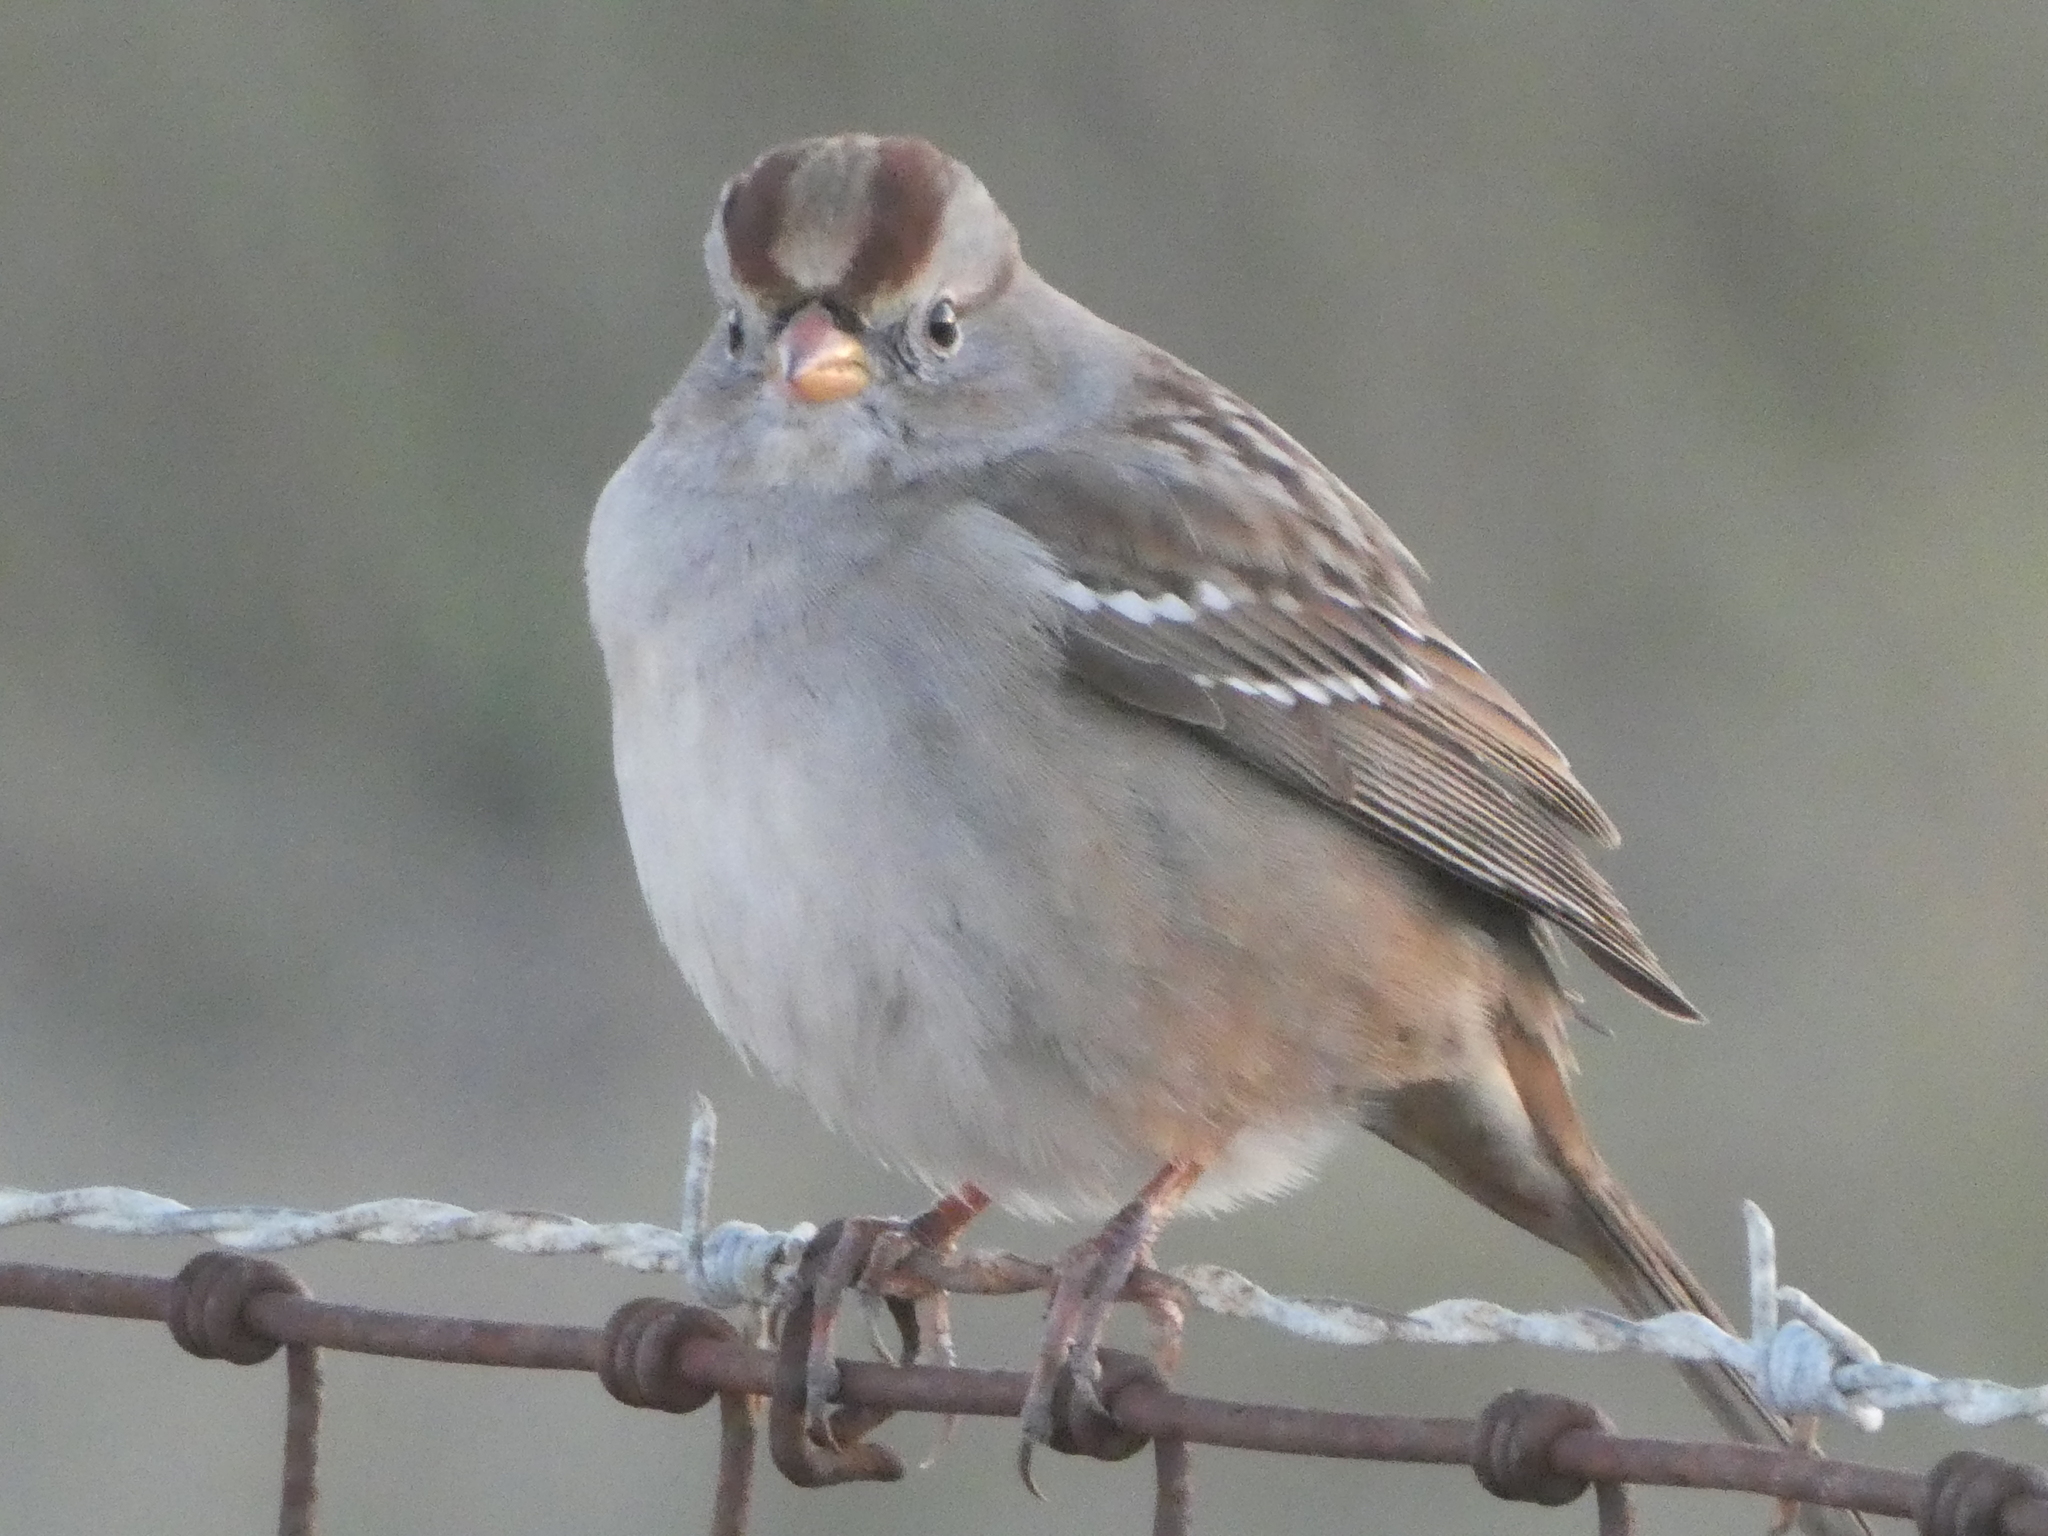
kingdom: Animalia
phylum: Chordata
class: Aves
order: Passeriformes
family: Passerellidae
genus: Zonotrichia
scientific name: Zonotrichia leucophrys
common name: White-crowned sparrow
